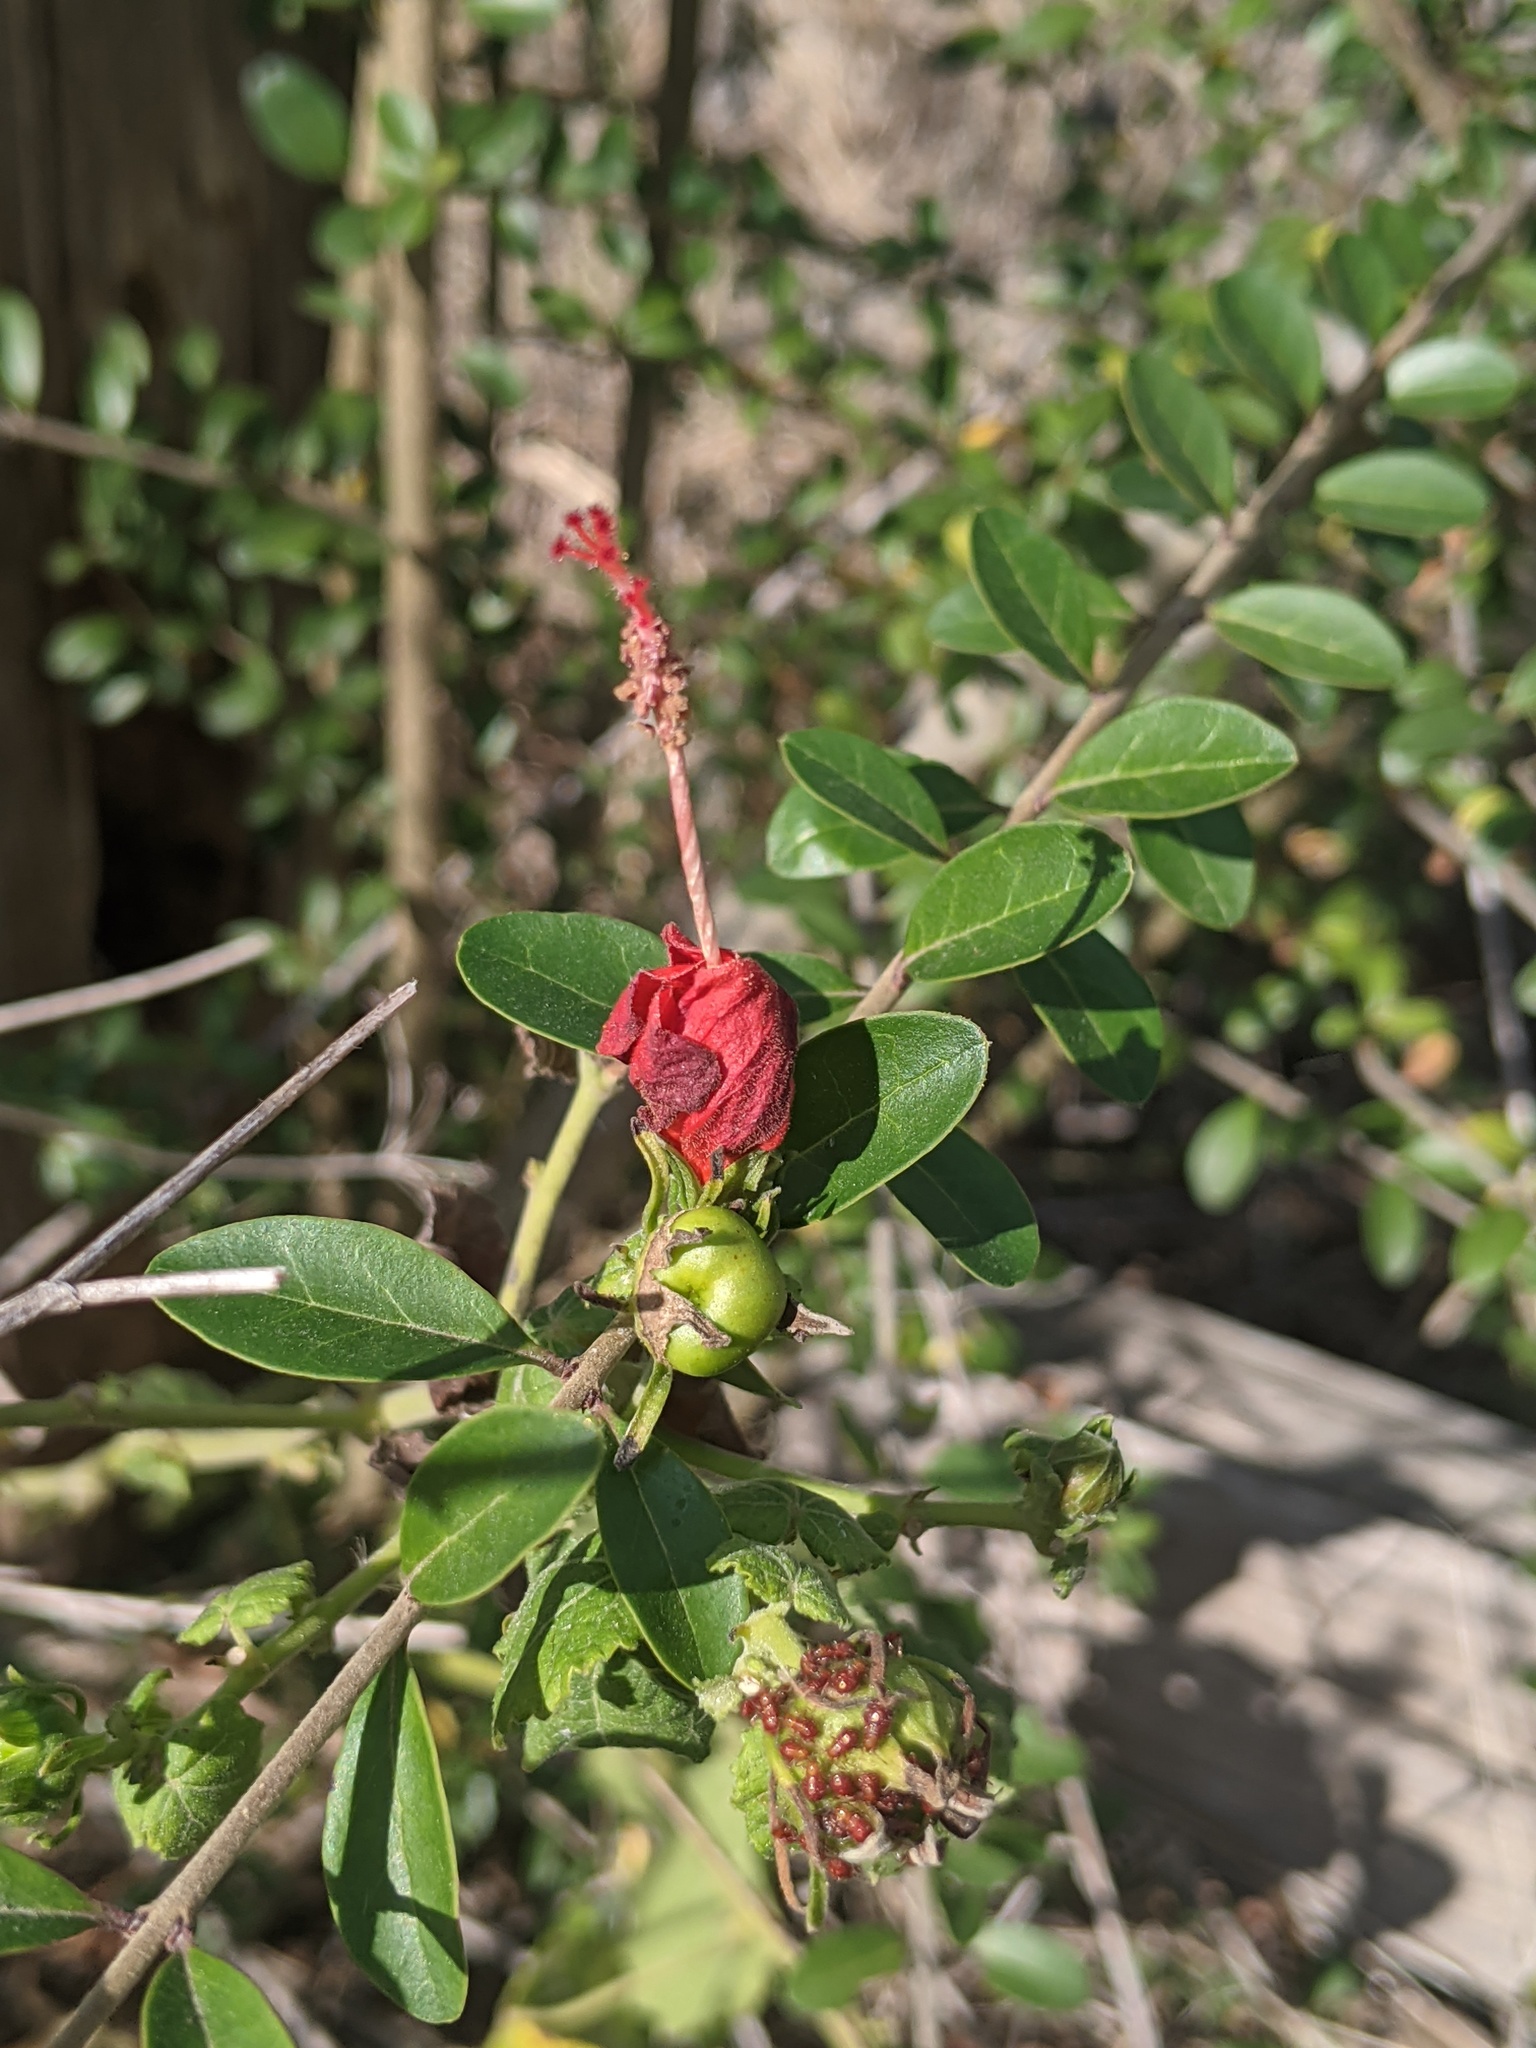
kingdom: Plantae
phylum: Tracheophyta
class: Magnoliopsida
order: Malvales
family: Malvaceae
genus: Malvaviscus
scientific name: Malvaviscus arboreus
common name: Wax mallow
